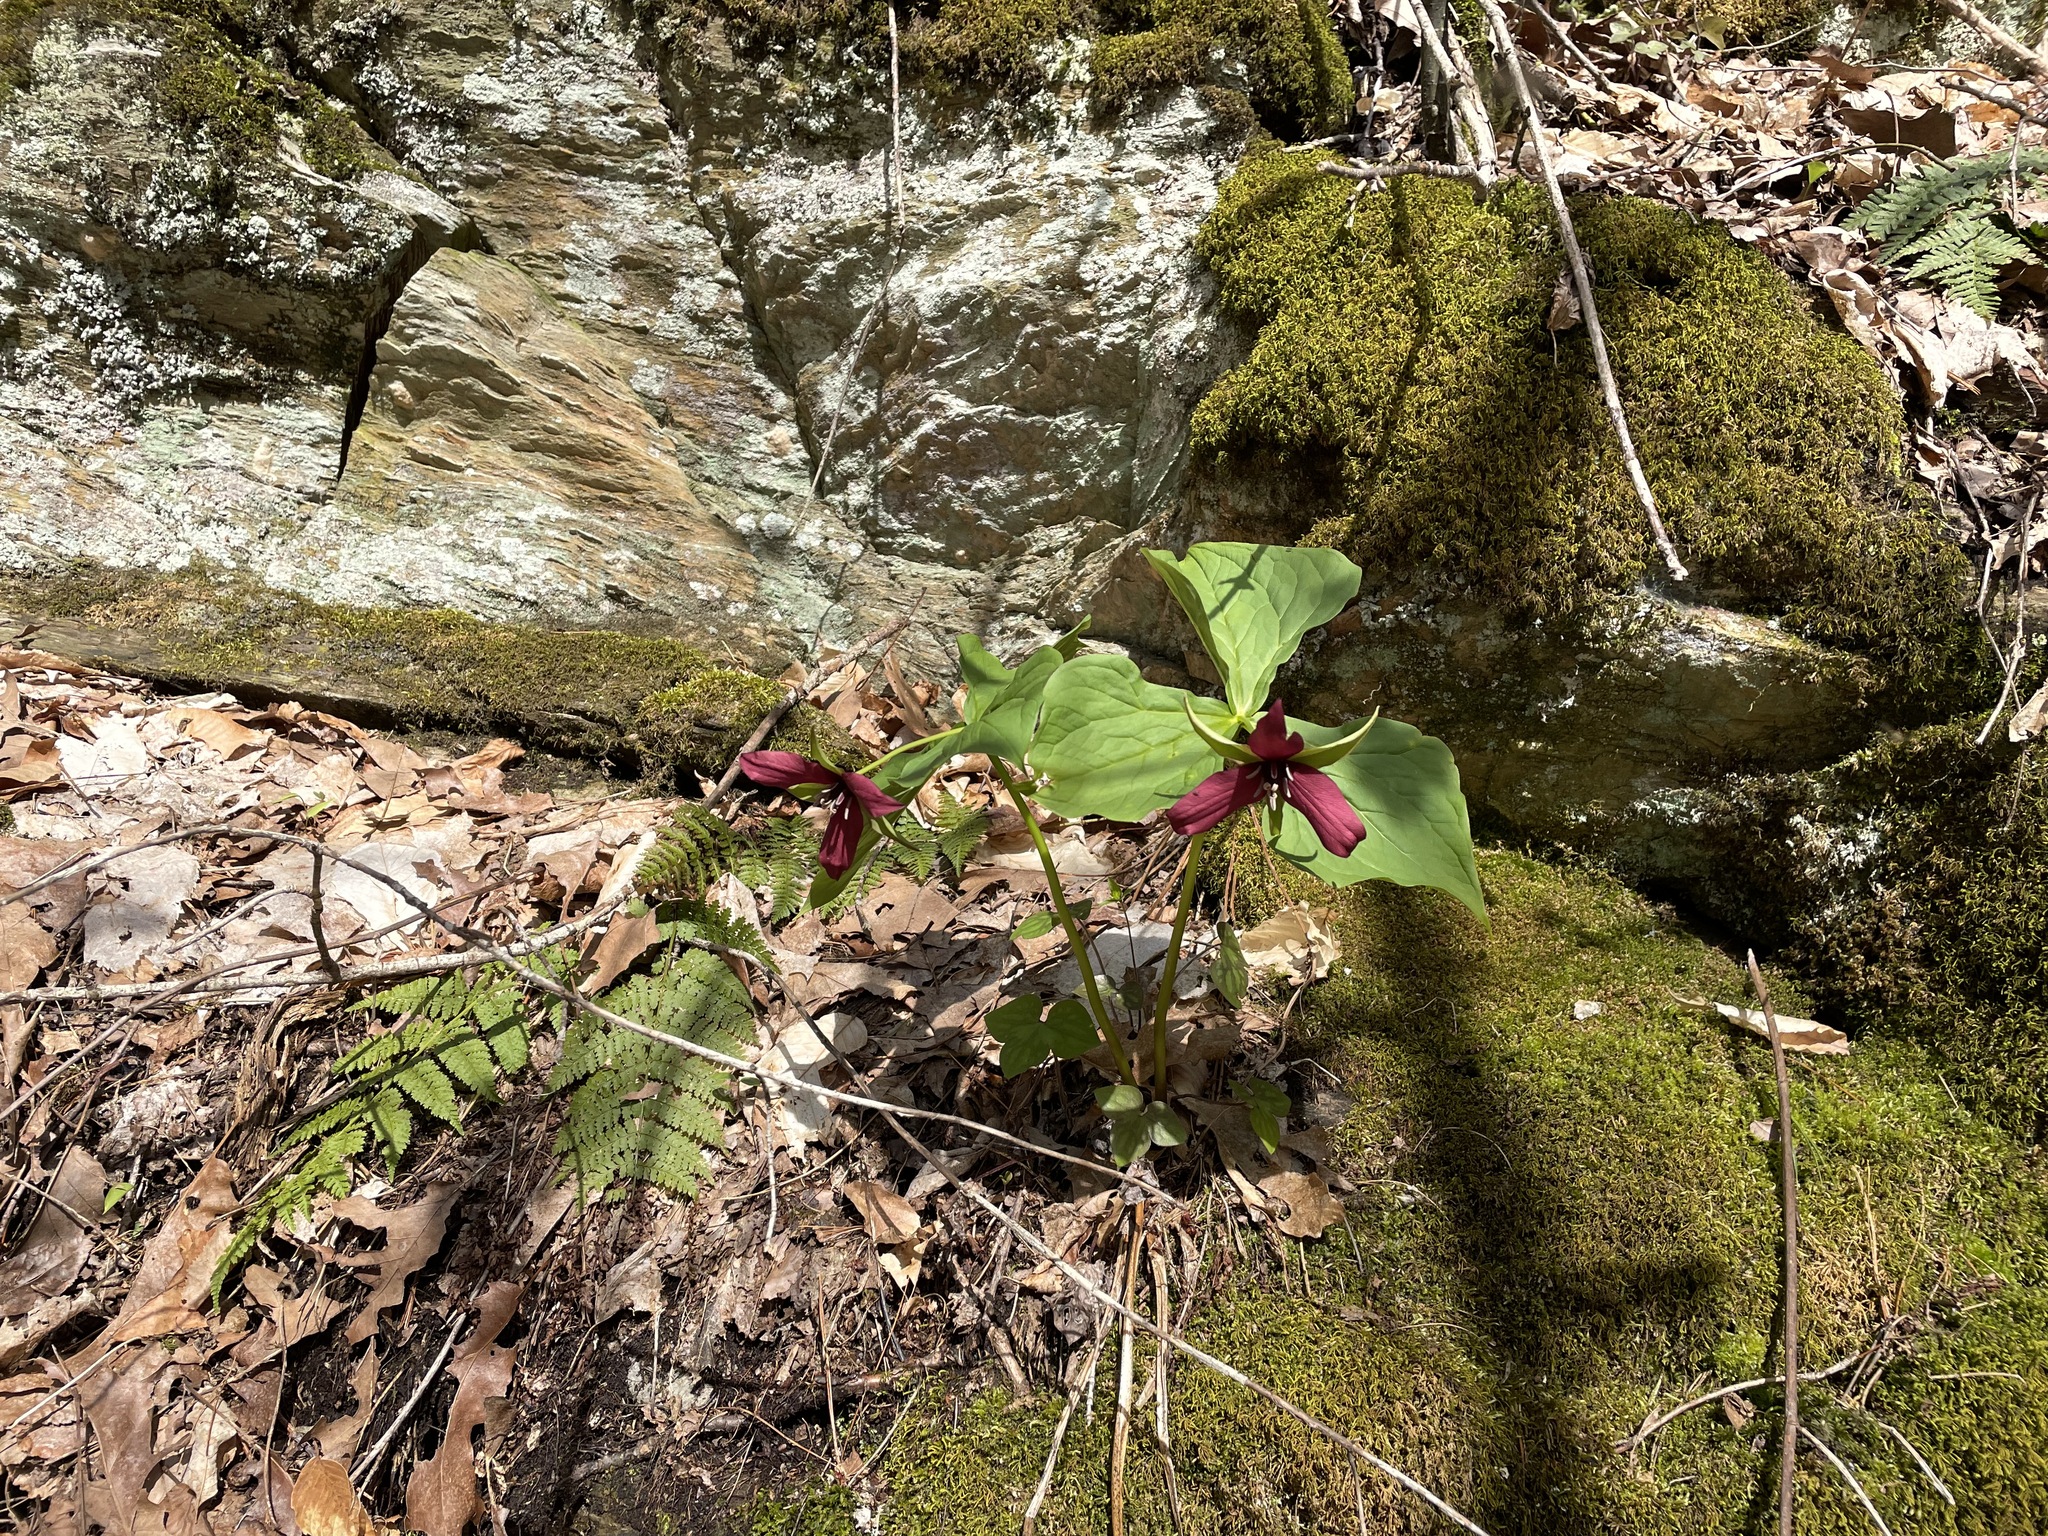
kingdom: Plantae
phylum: Tracheophyta
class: Liliopsida
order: Liliales
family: Melanthiaceae
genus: Trillium
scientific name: Trillium erectum
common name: Purple trillium
